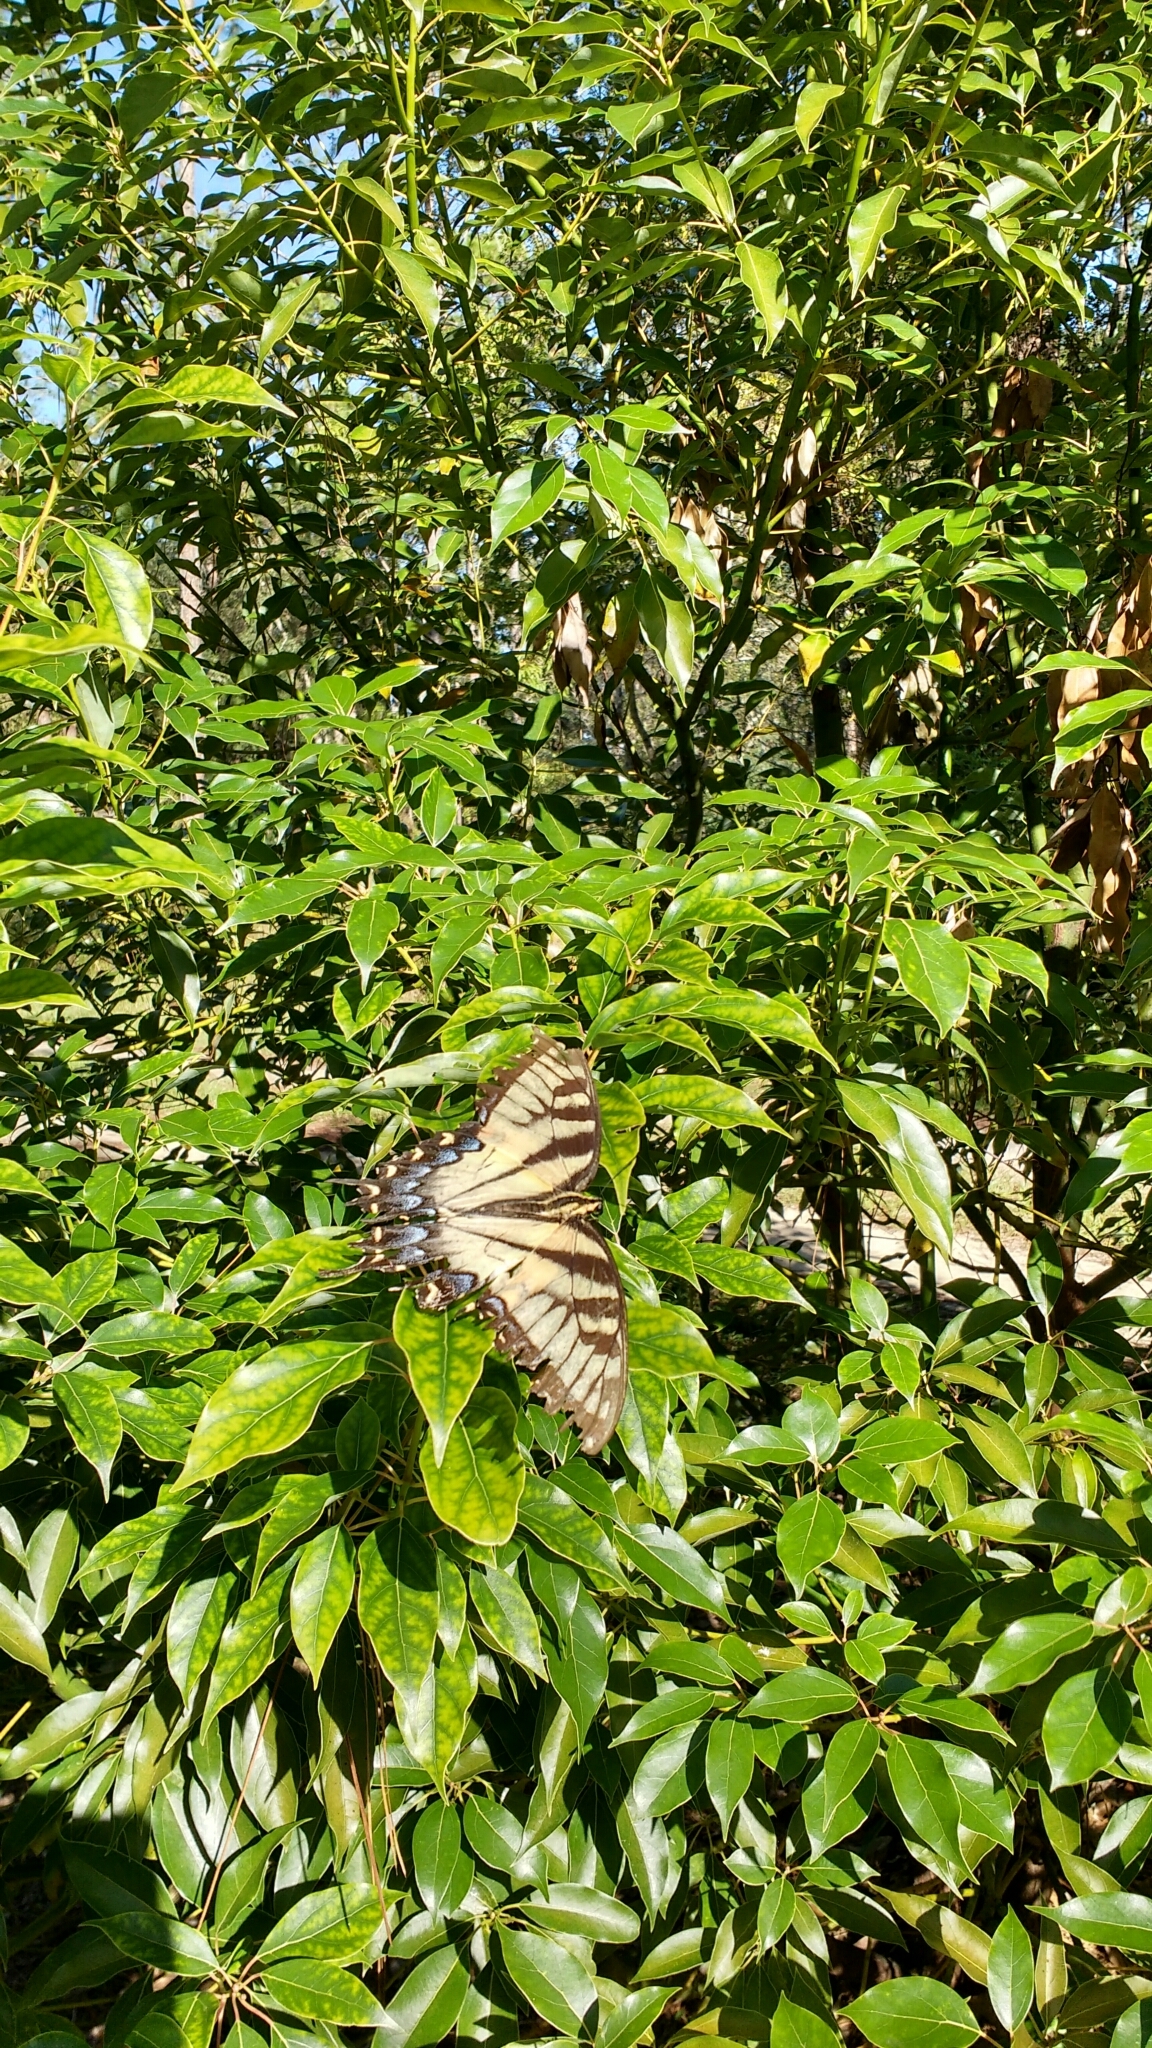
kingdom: Animalia
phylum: Arthropoda
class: Insecta
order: Lepidoptera
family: Papilionidae
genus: Papilio
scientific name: Papilio glaucus
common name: Tiger swallowtail
